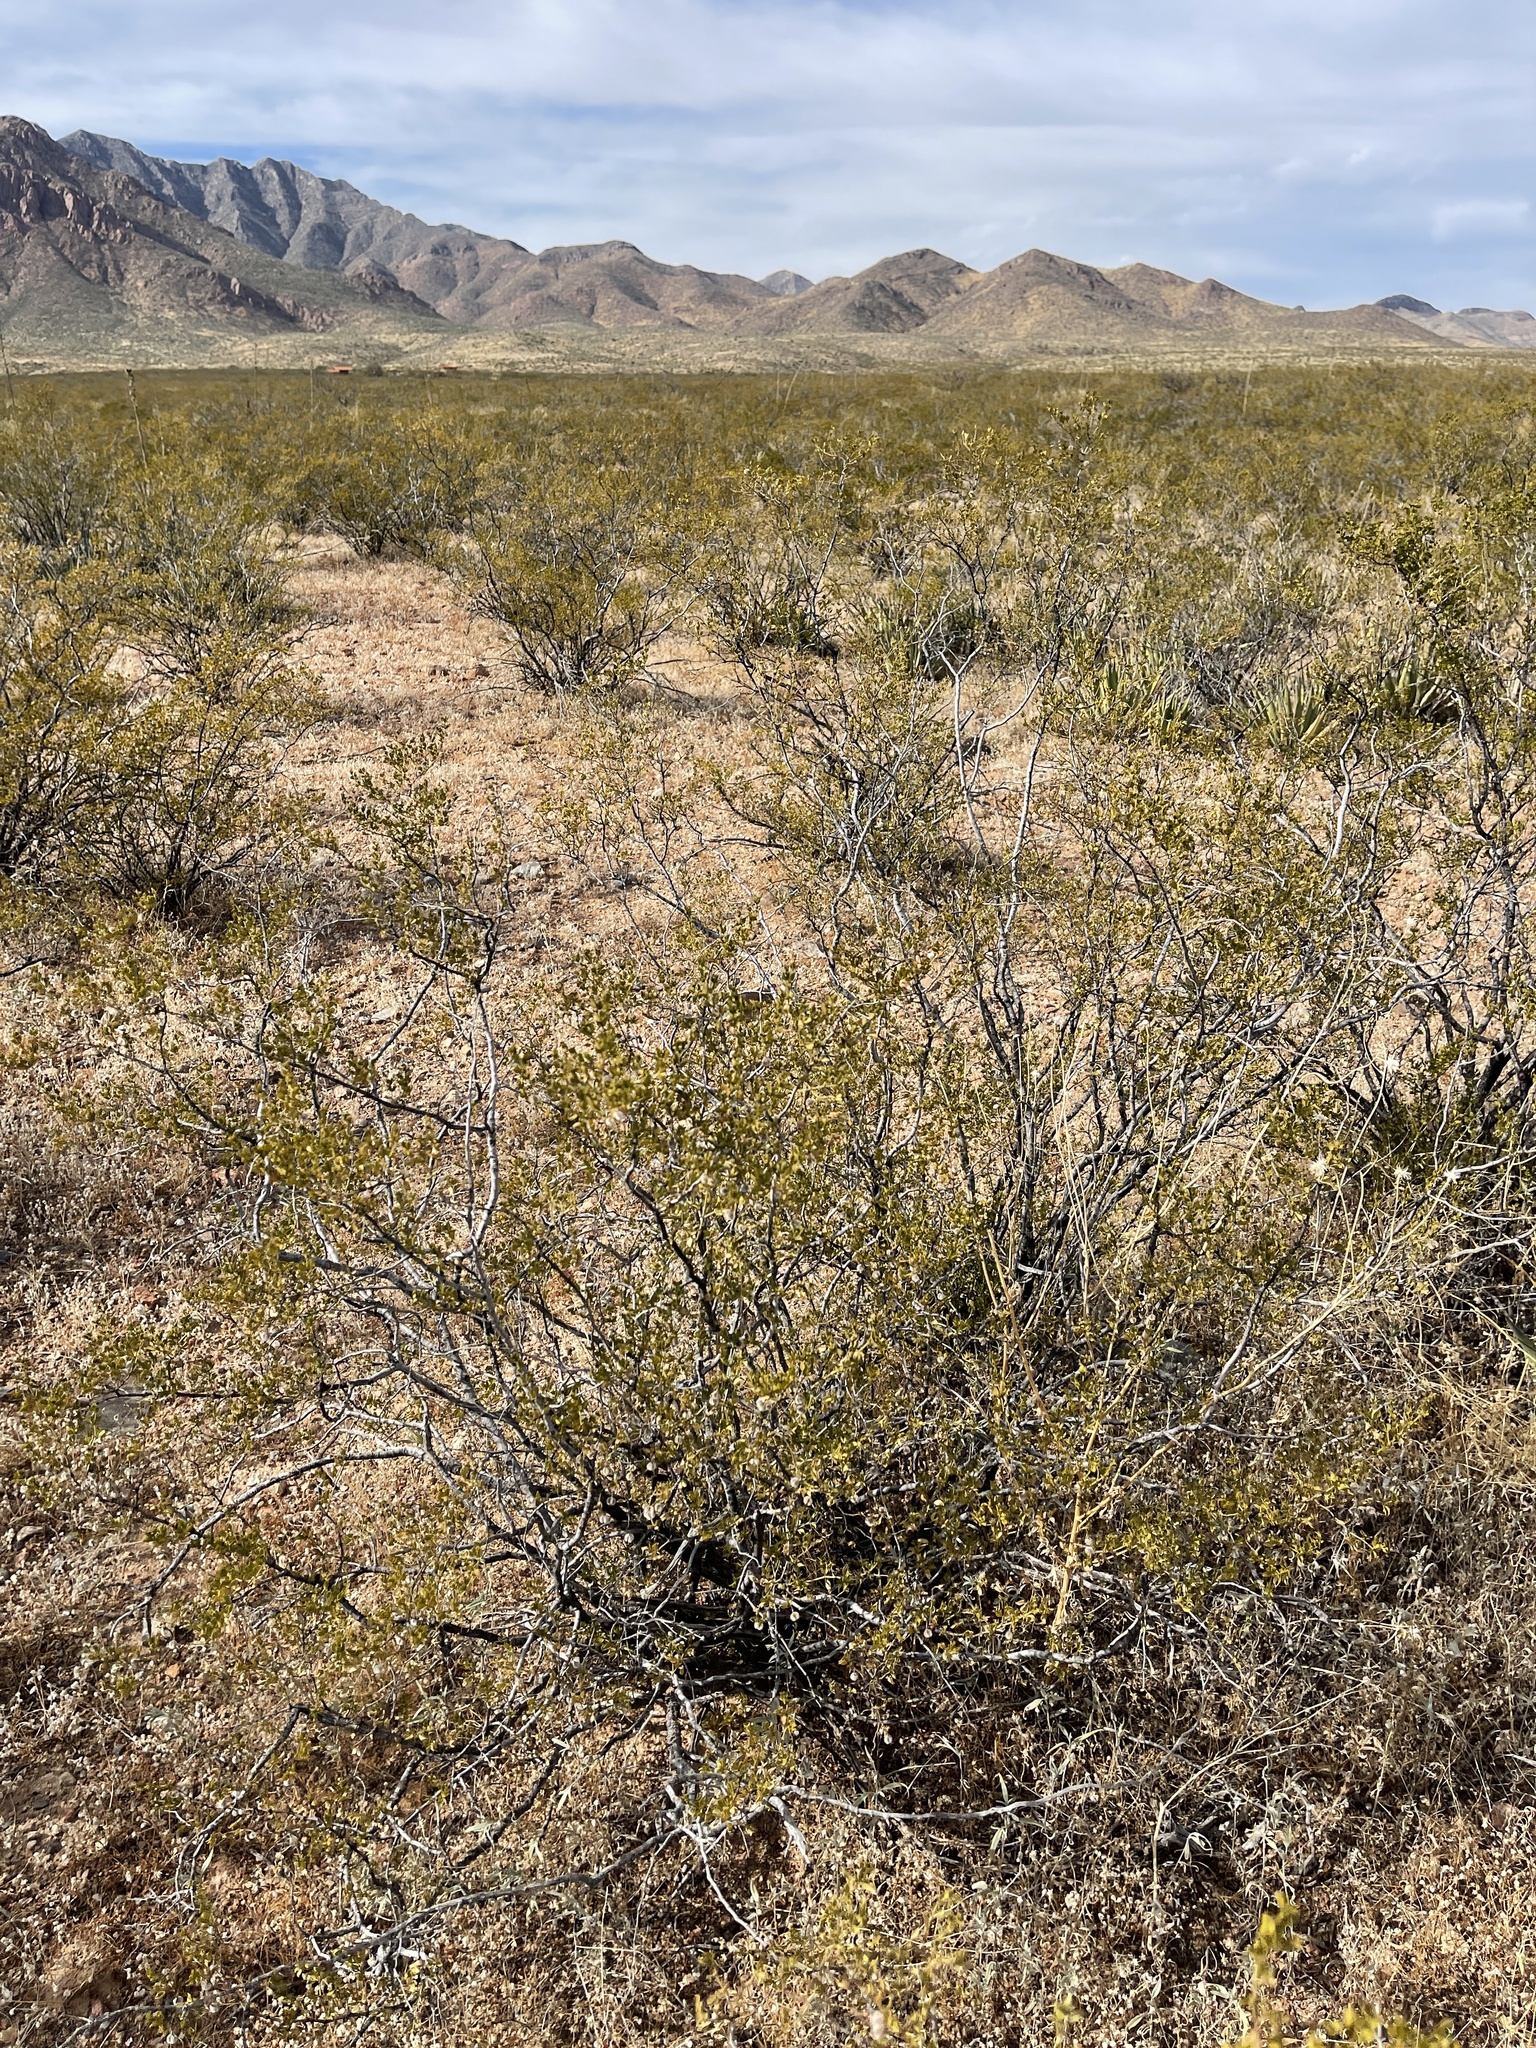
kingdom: Plantae
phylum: Tracheophyta
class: Magnoliopsida
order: Zygophyllales
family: Zygophyllaceae
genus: Larrea
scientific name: Larrea tridentata
